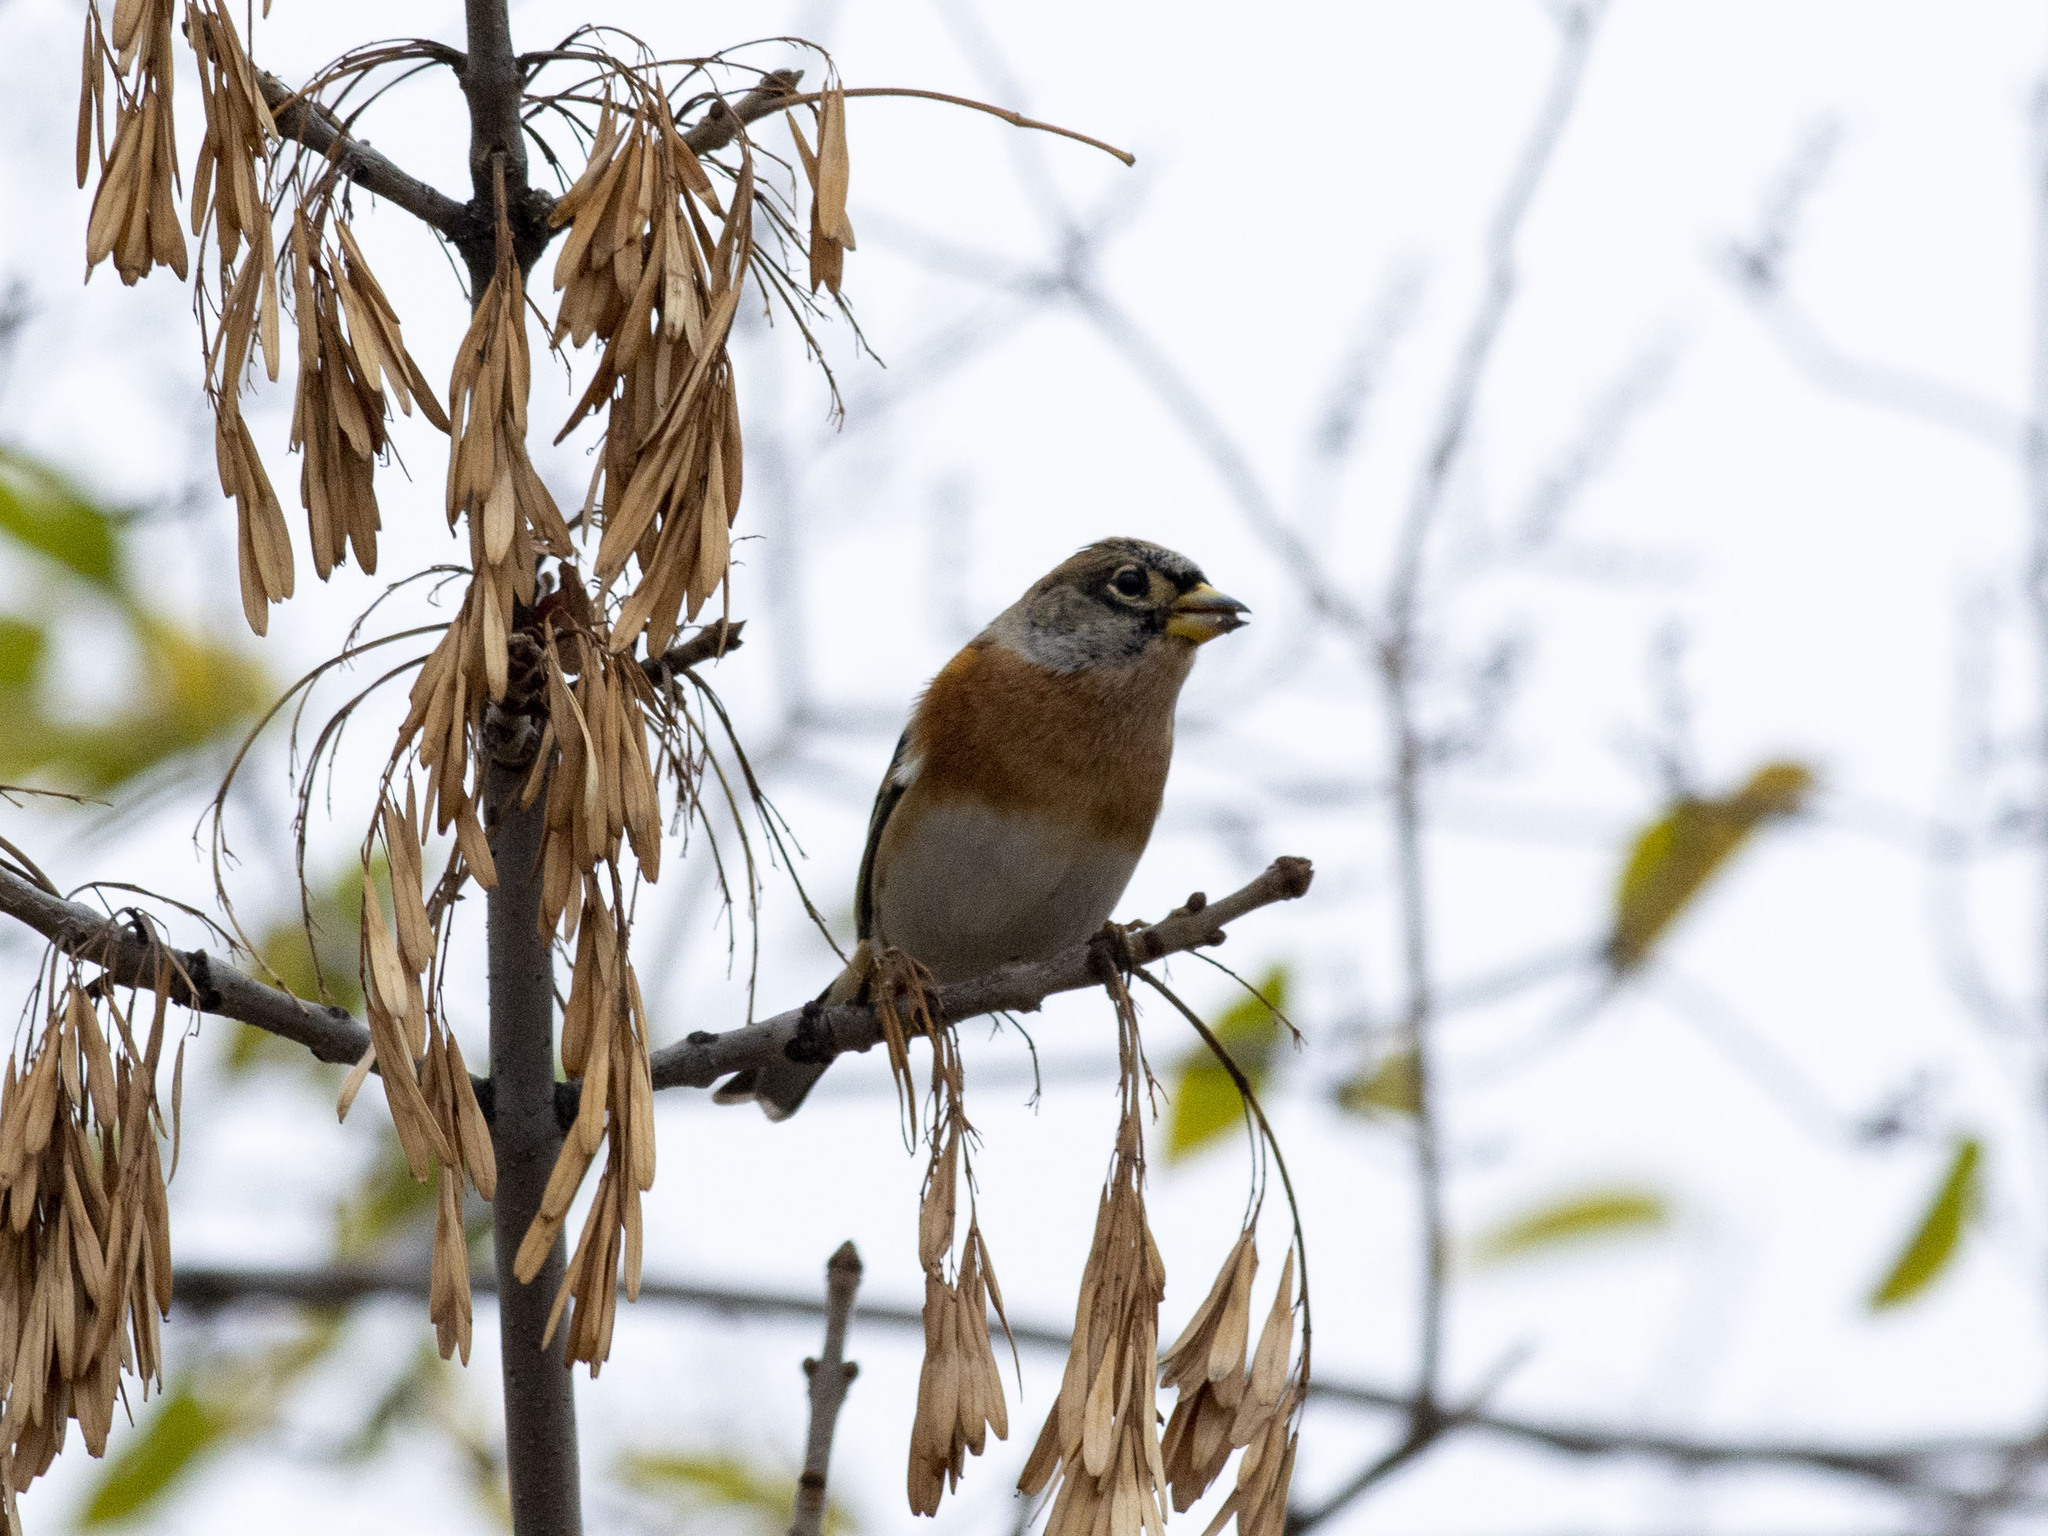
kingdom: Animalia
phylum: Chordata
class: Aves
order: Passeriformes
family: Fringillidae
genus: Fringilla
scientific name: Fringilla montifringilla
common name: Brambling
